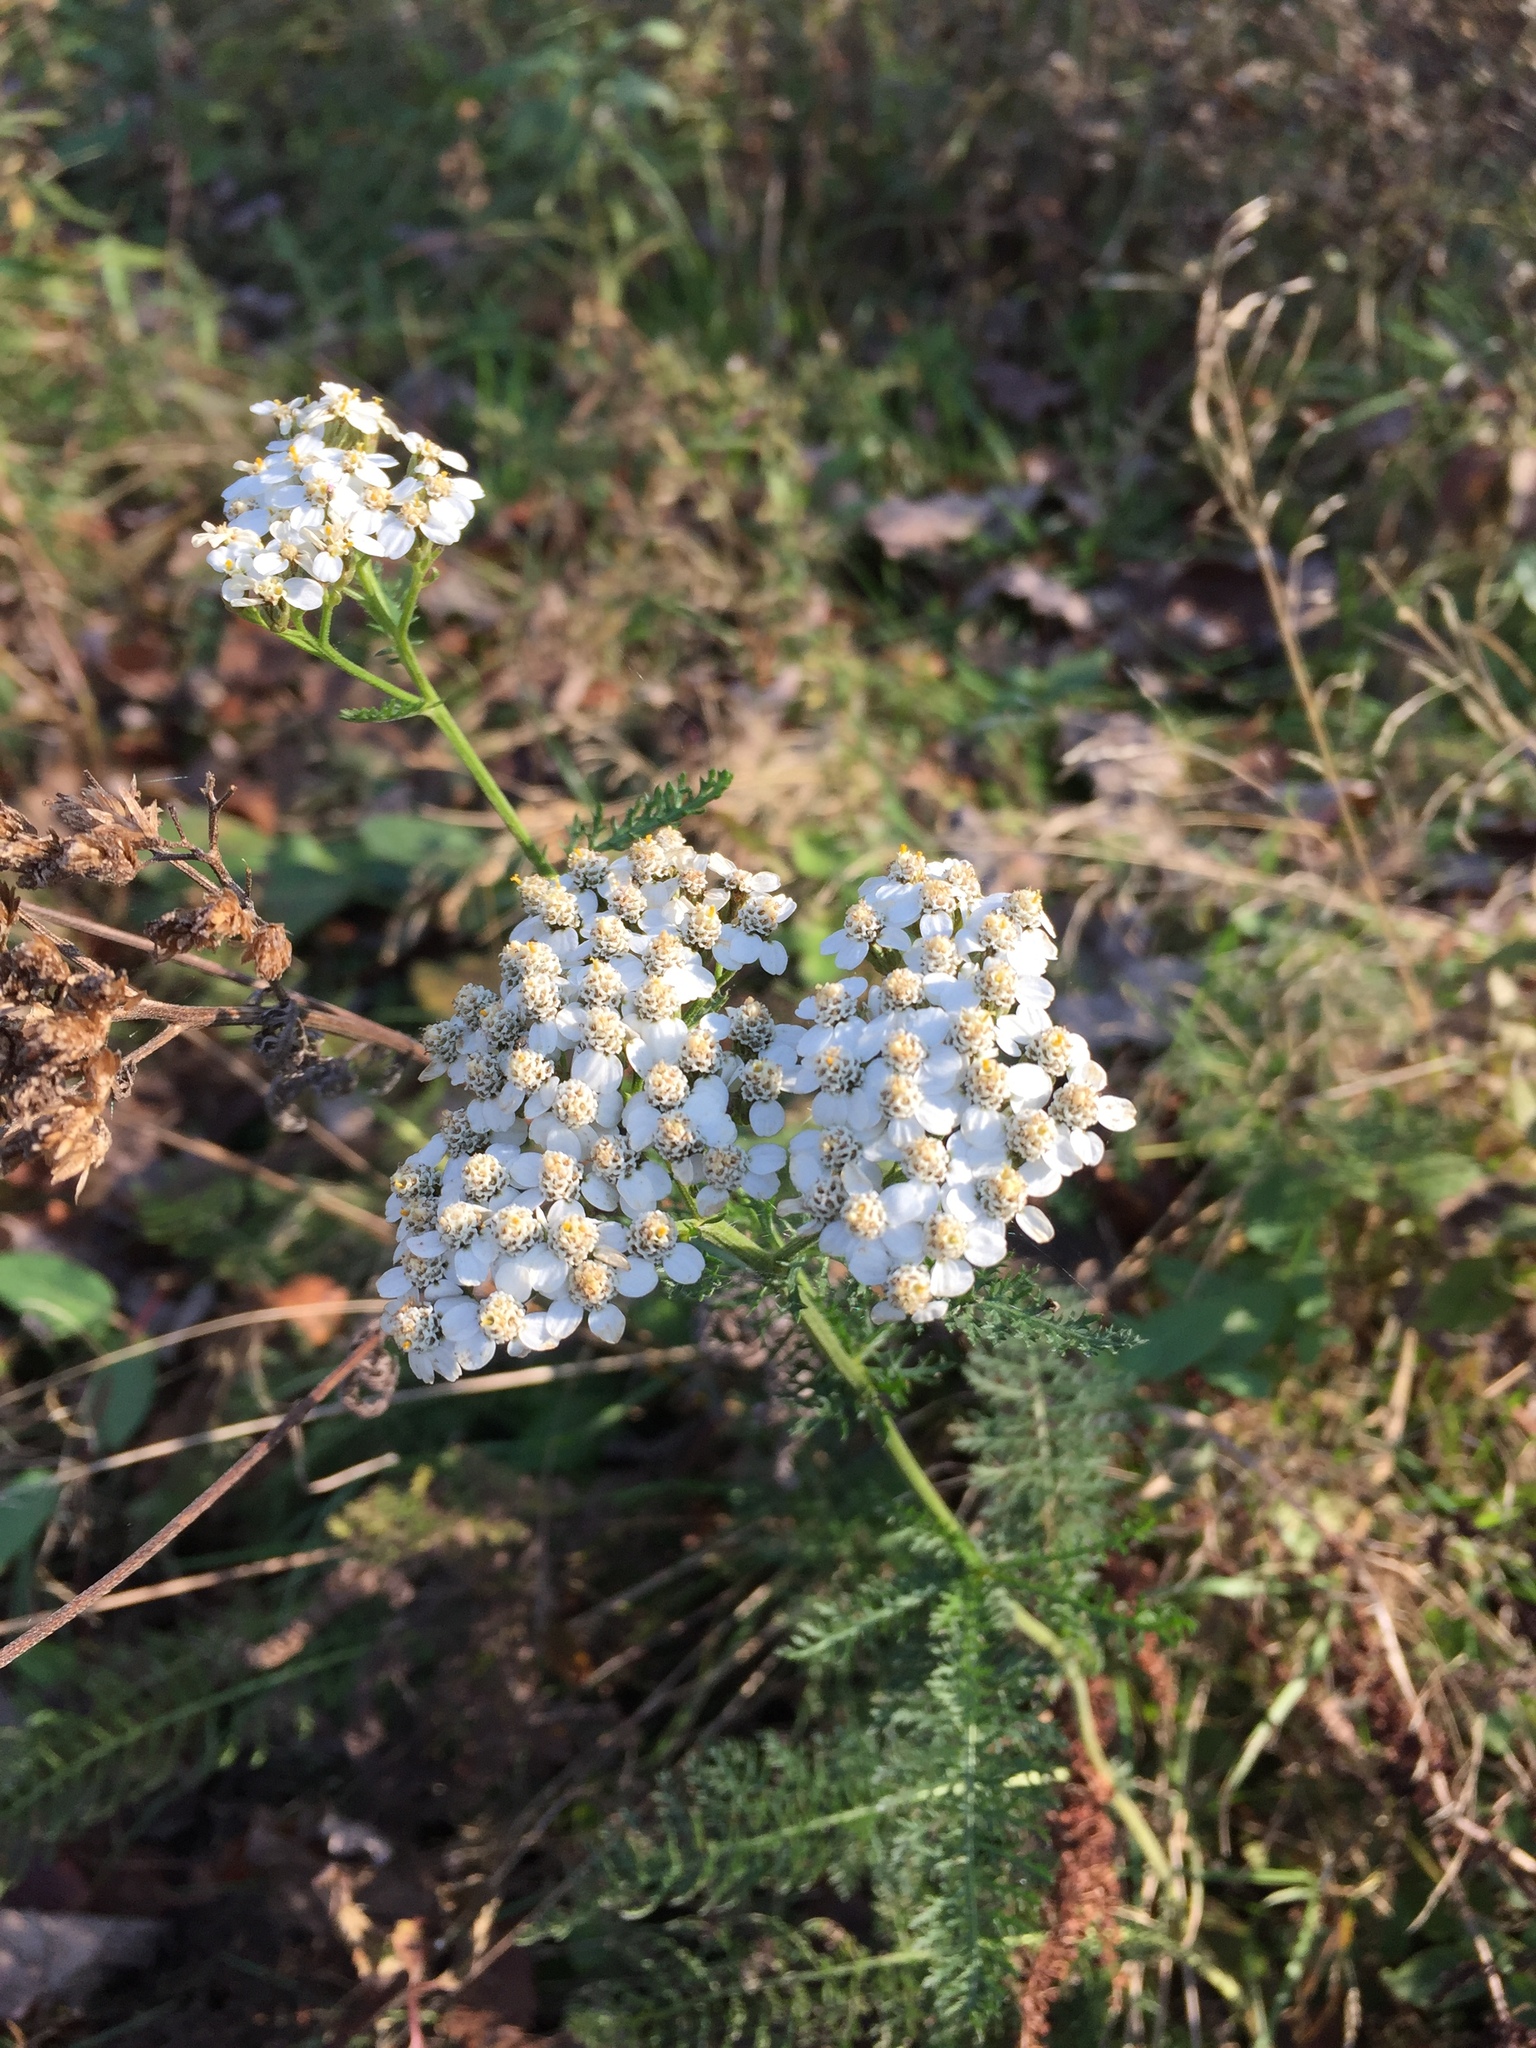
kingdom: Plantae
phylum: Tracheophyta
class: Magnoliopsida
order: Asterales
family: Asteraceae
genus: Achillea
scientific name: Achillea millefolium
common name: Yarrow
